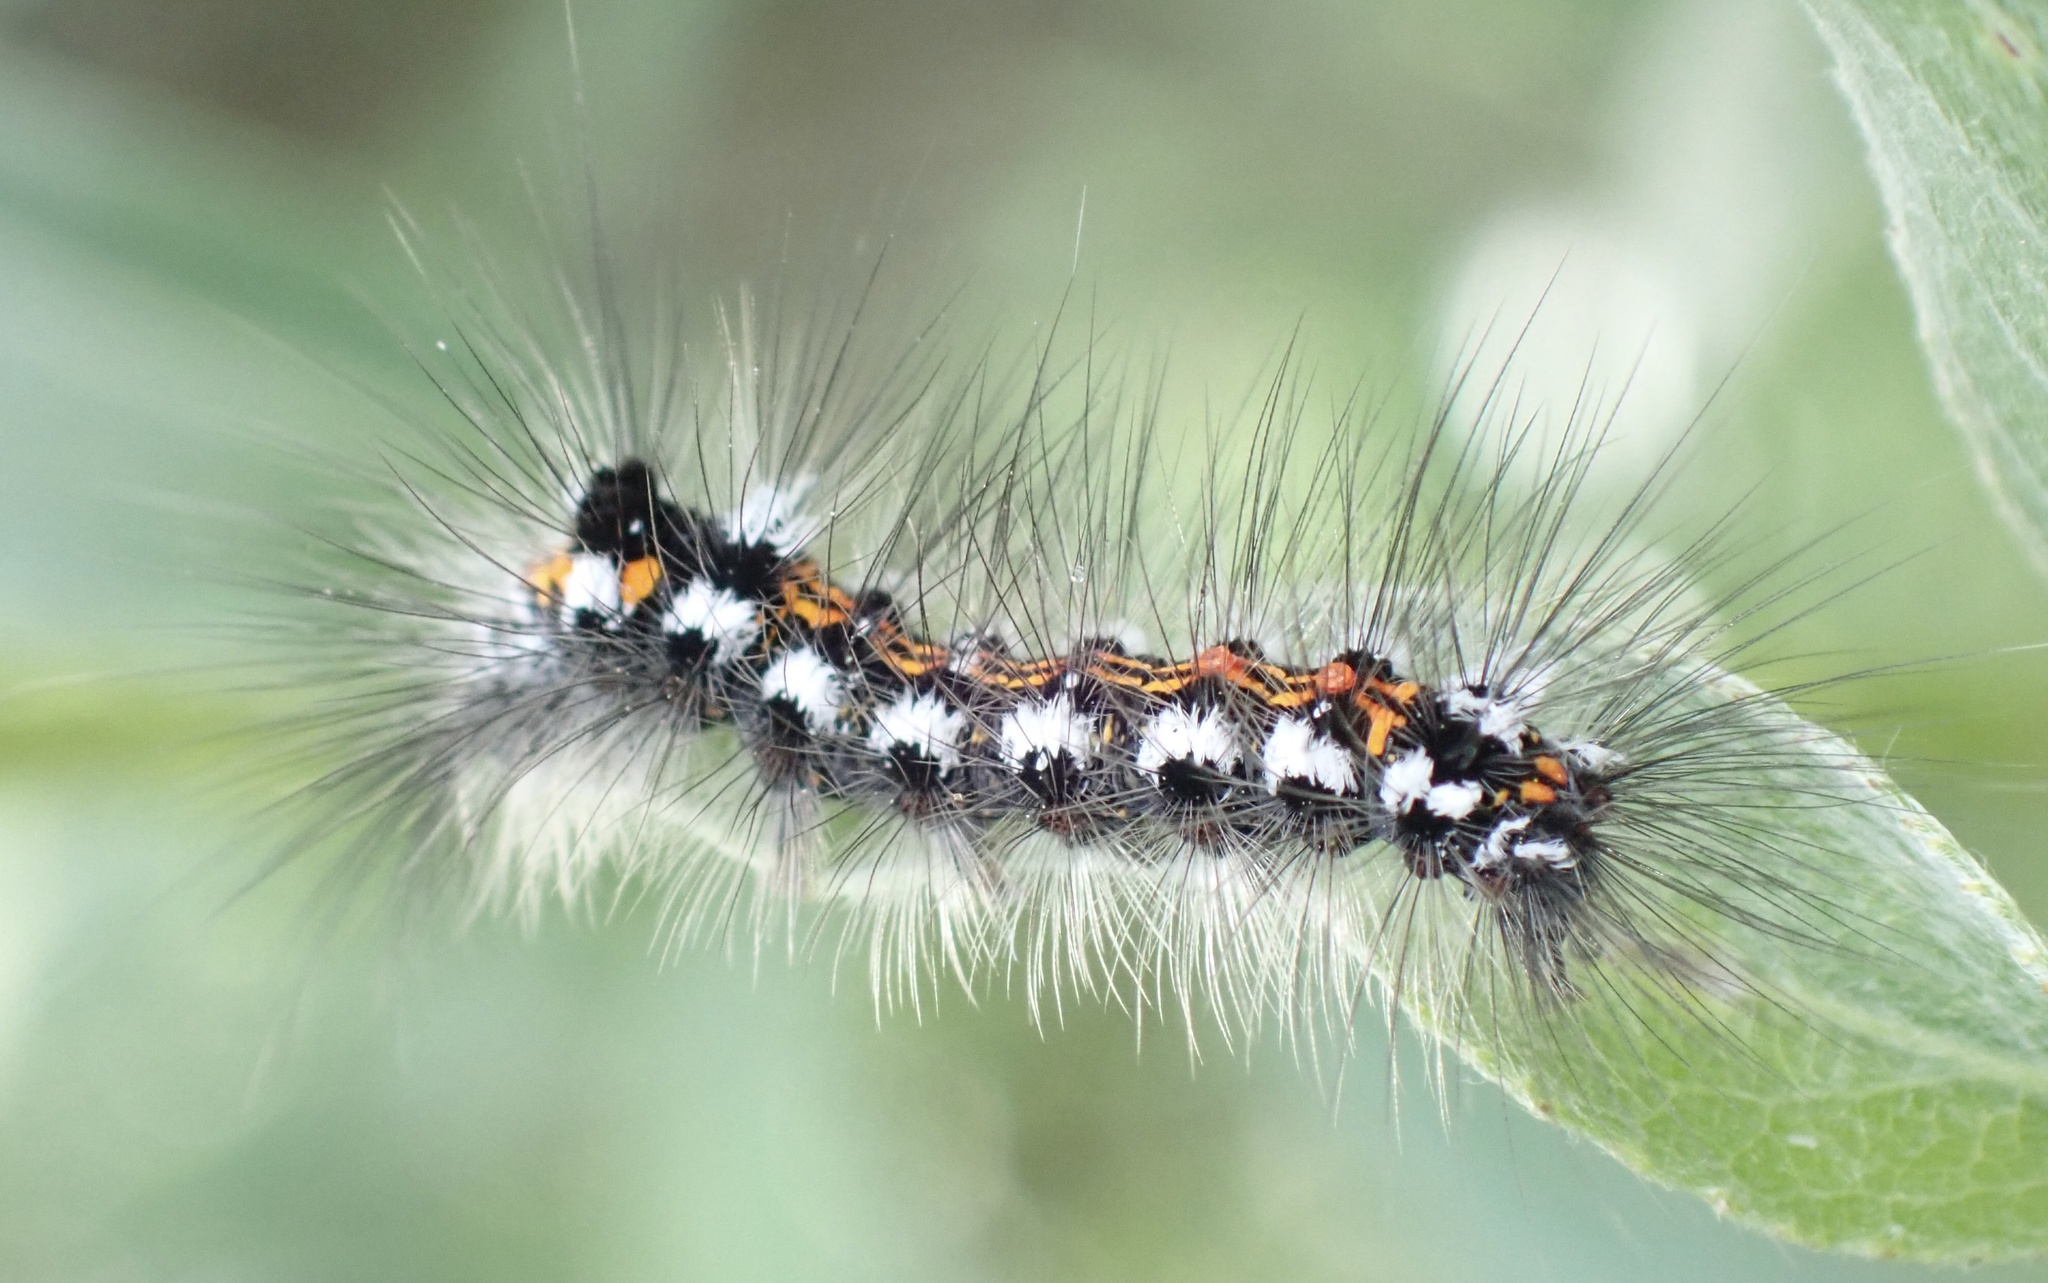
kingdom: Animalia
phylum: Arthropoda
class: Insecta
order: Lepidoptera
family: Erebidae
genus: Sphrageidus
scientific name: Sphrageidus similis
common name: Yellow-tail
